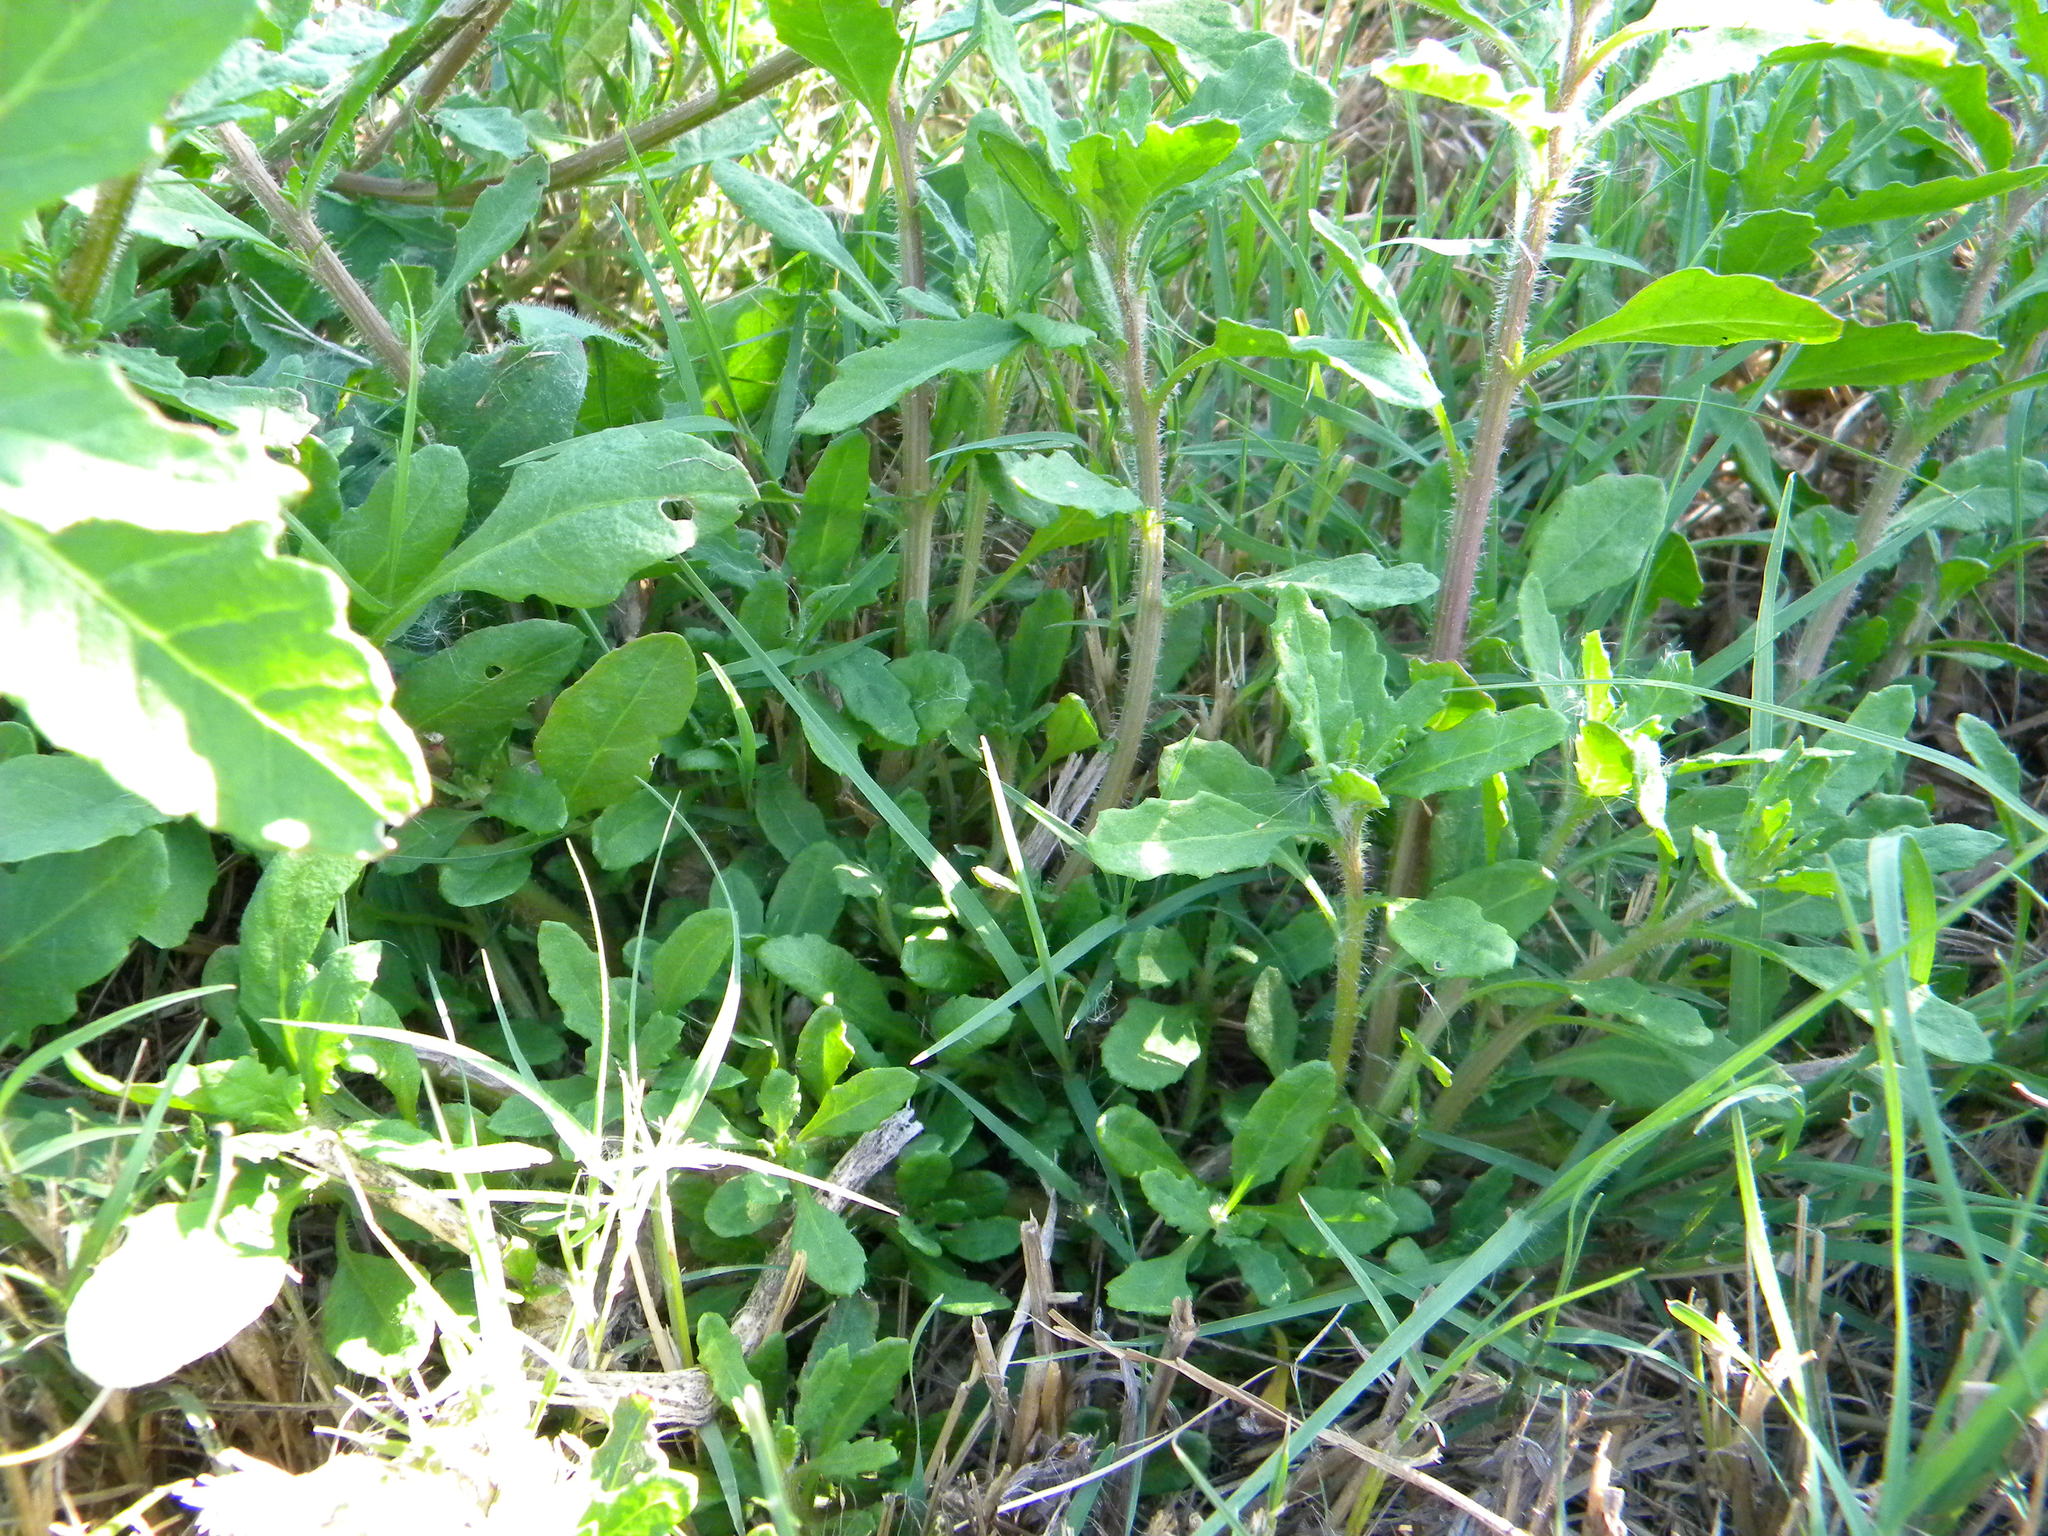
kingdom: Plantae
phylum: Tracheophyta
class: Magnoliopsida
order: Caryophyllales
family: Amaranthaceae
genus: Dysphania
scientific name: Dysphania ambrosioides
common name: Wormseed
